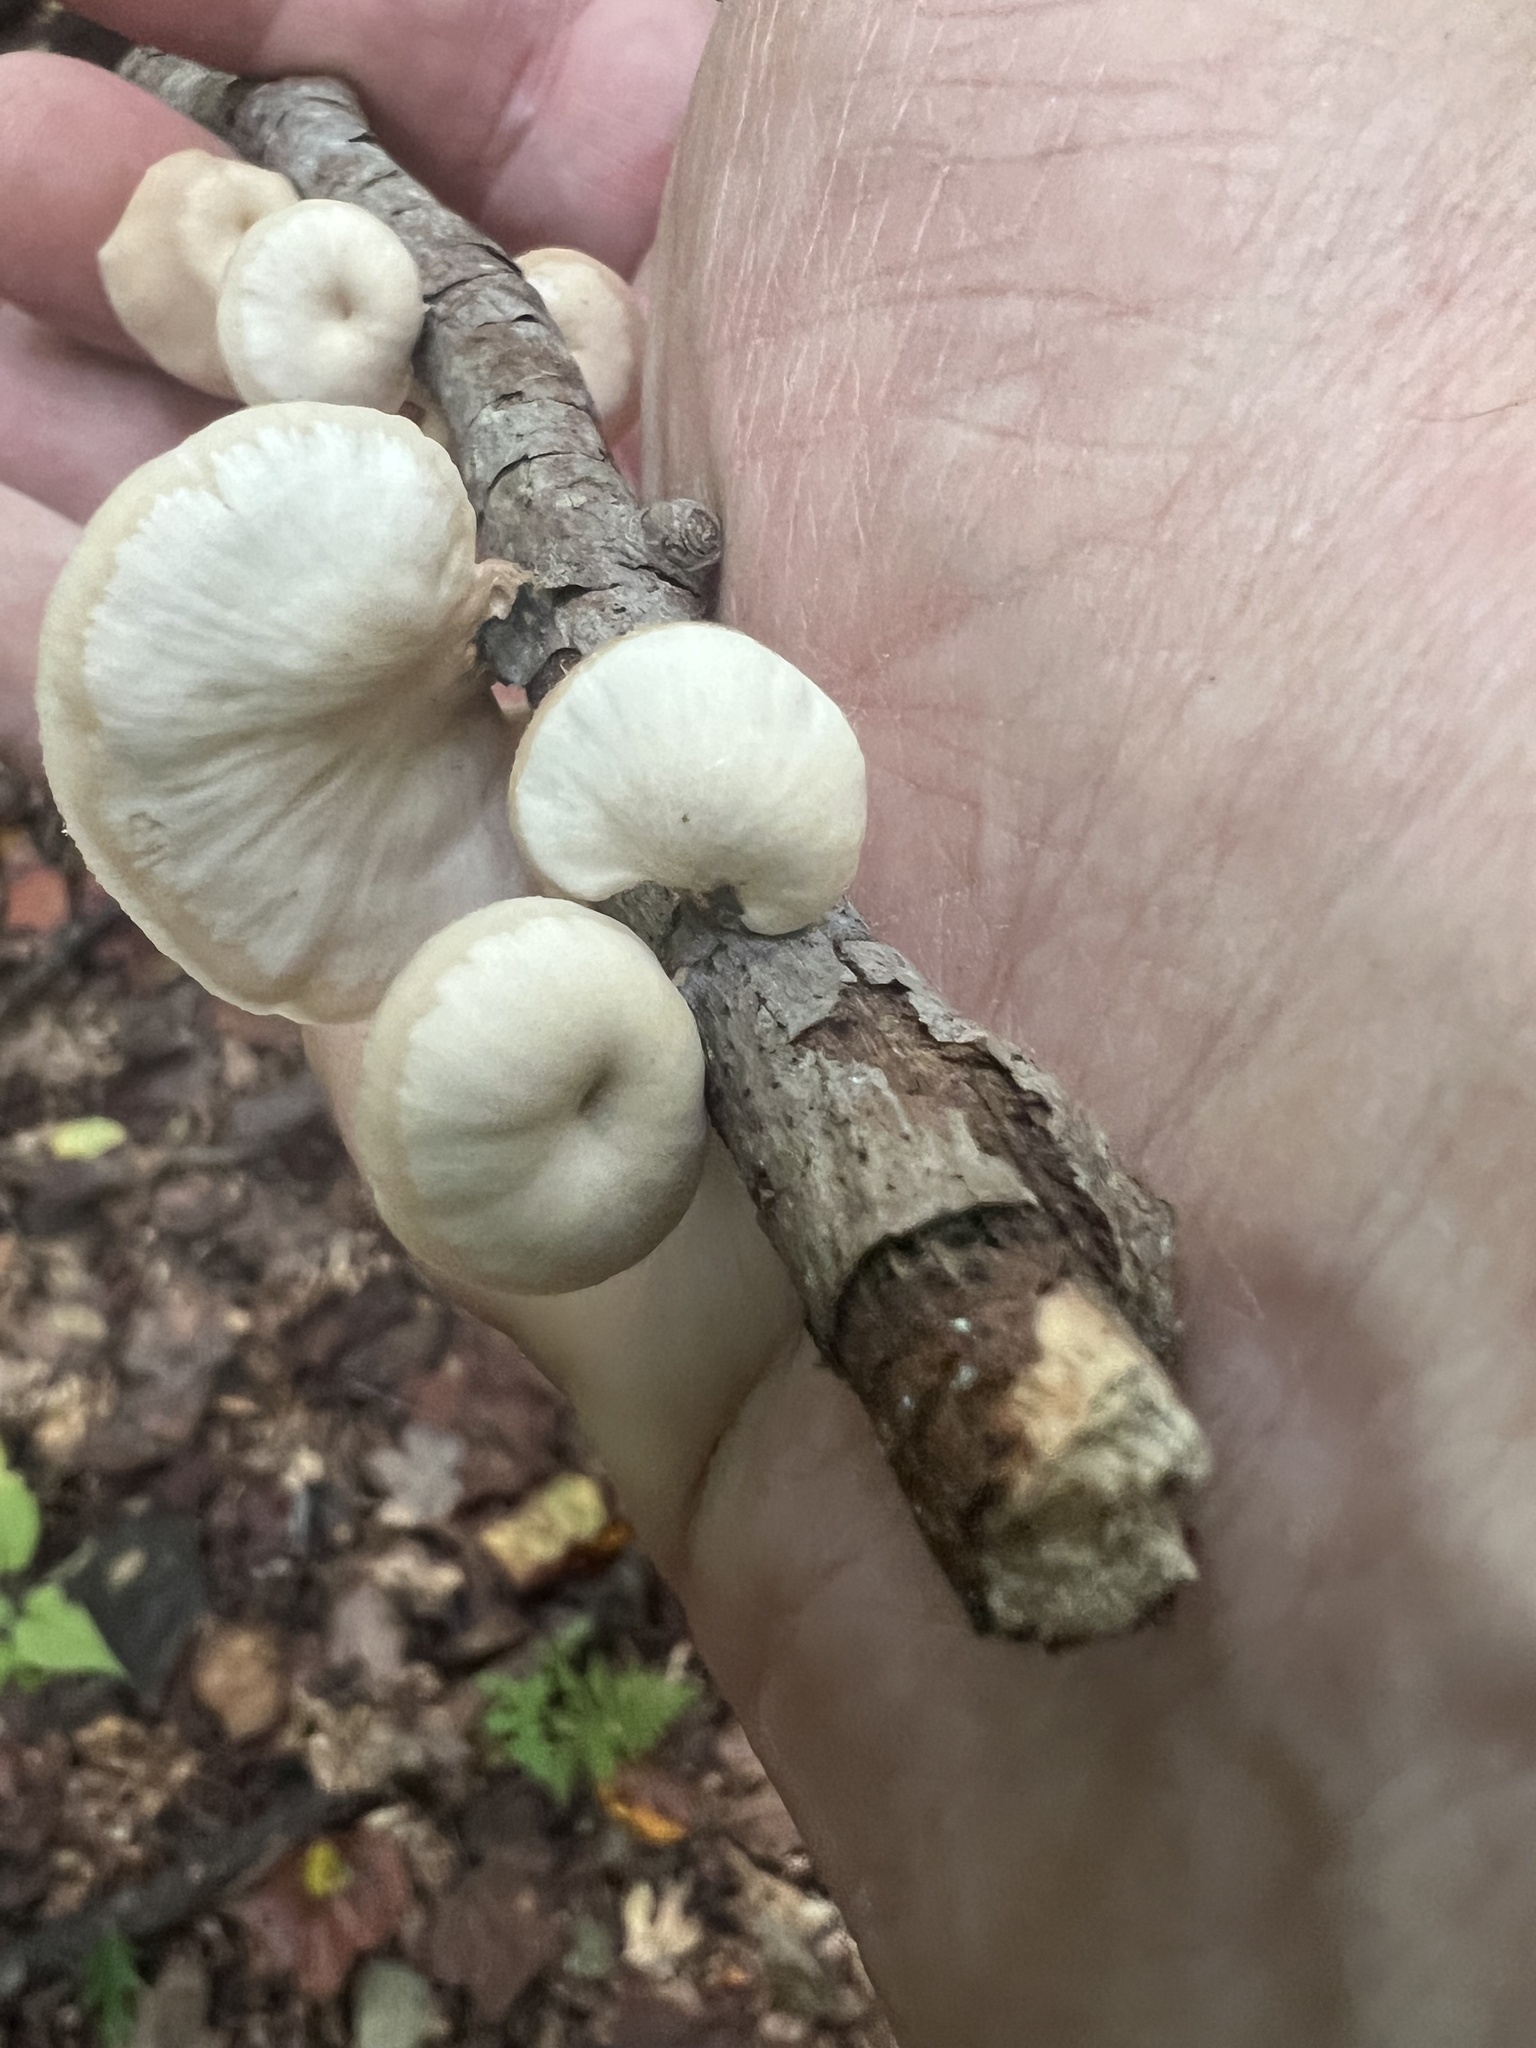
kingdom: Fungi
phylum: Basidiomycota
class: Agaricomycetes
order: Russulales
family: Auriscalpiaceae
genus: Lentinellus
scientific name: Lentinellus micheneri
